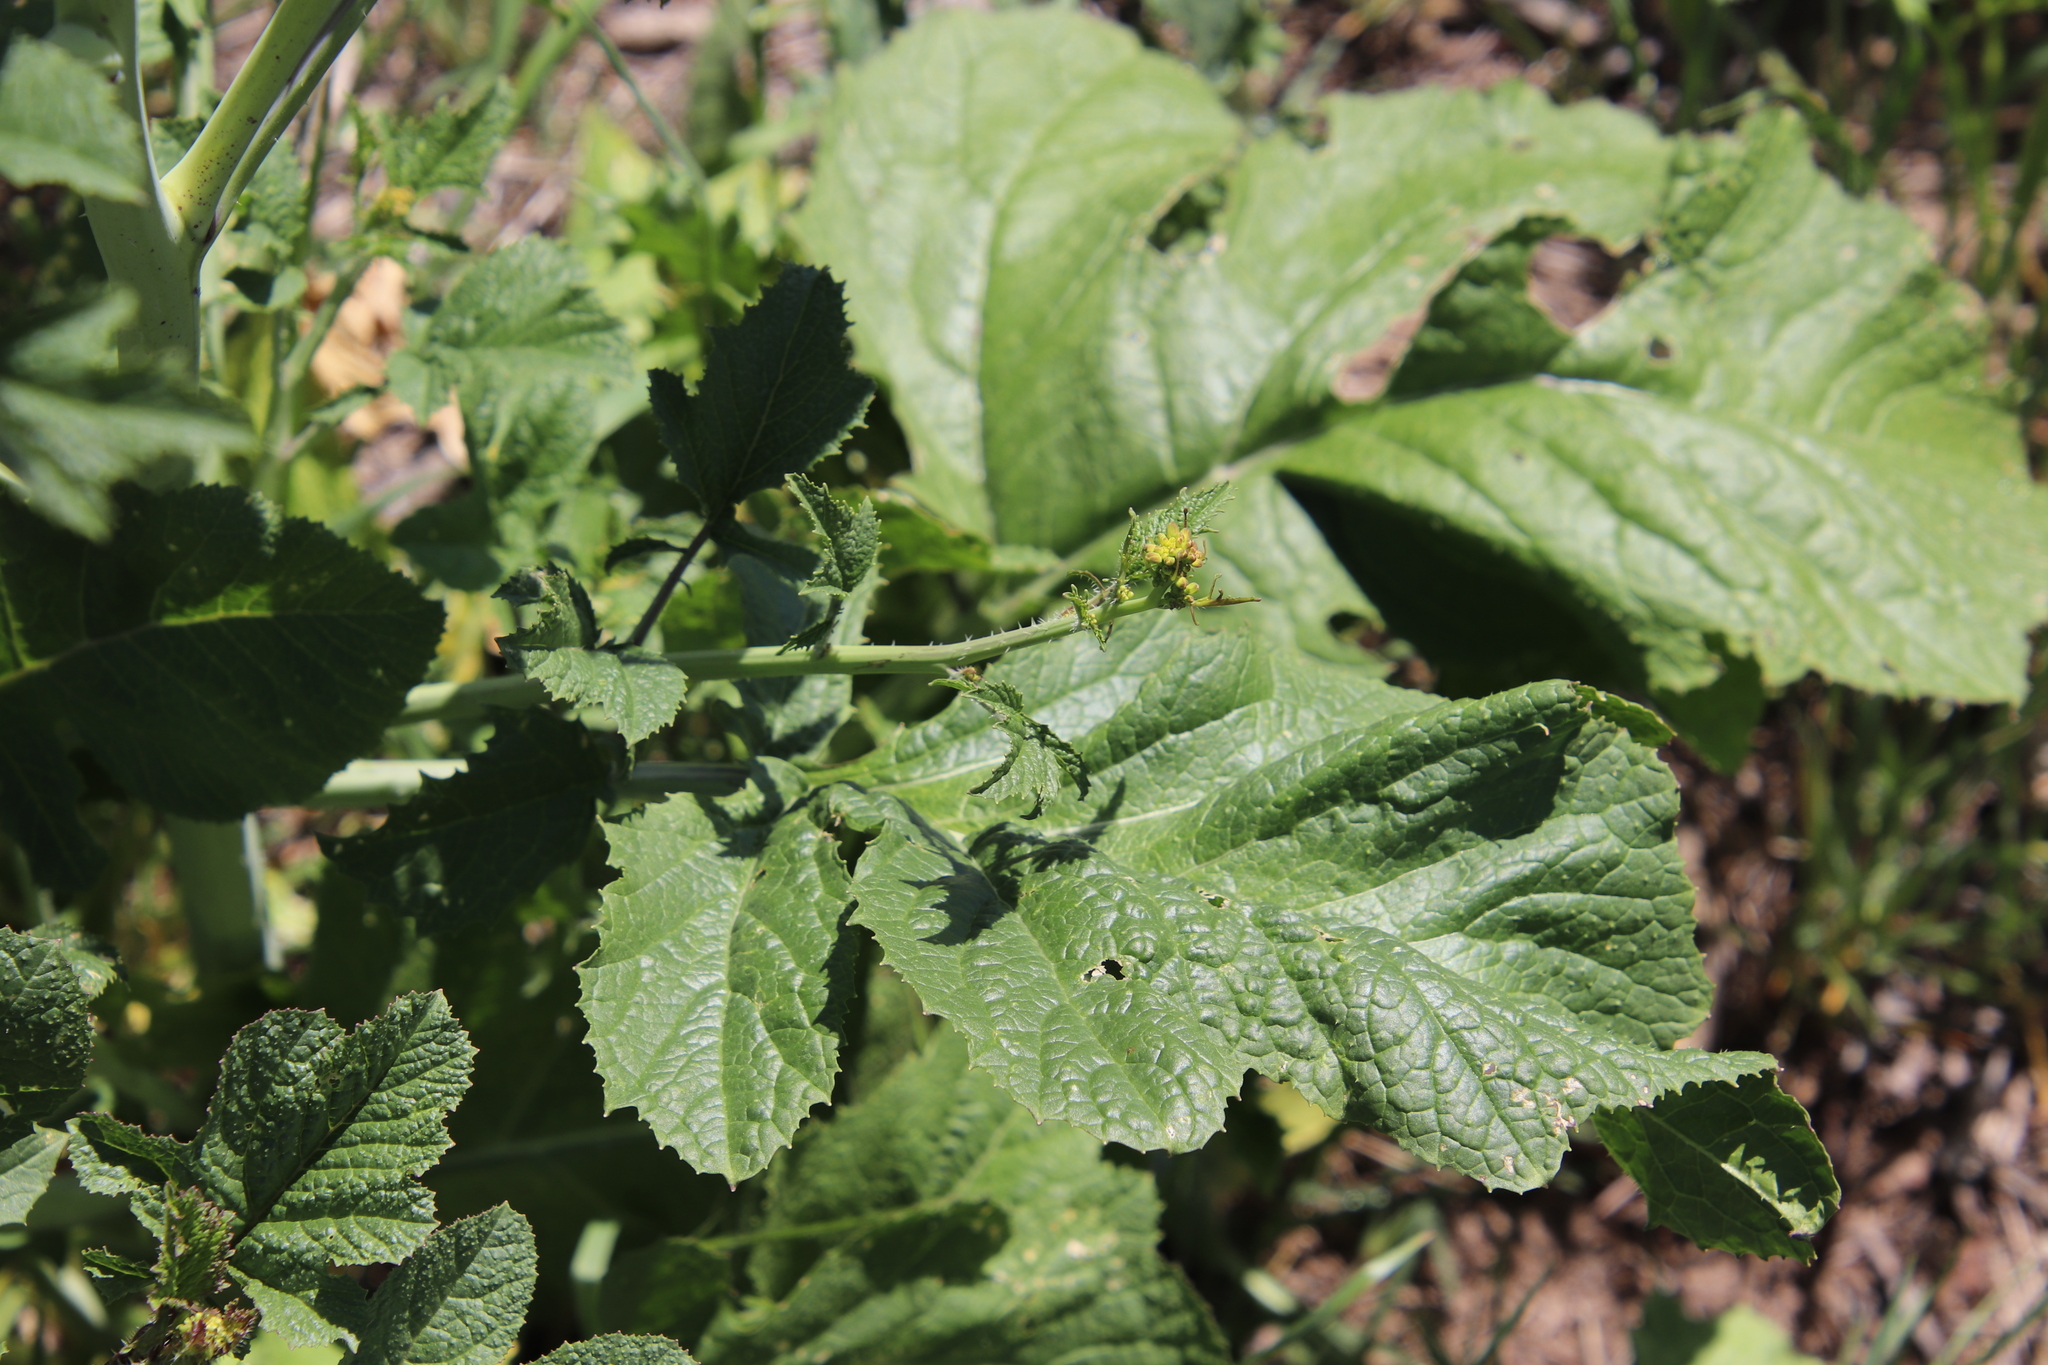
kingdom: Plantae
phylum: Tracheophyta
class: Magnoliopsida
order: Brassicales
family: Brassicaceae
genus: Brassica
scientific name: Brassica nigra
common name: Black mustard
